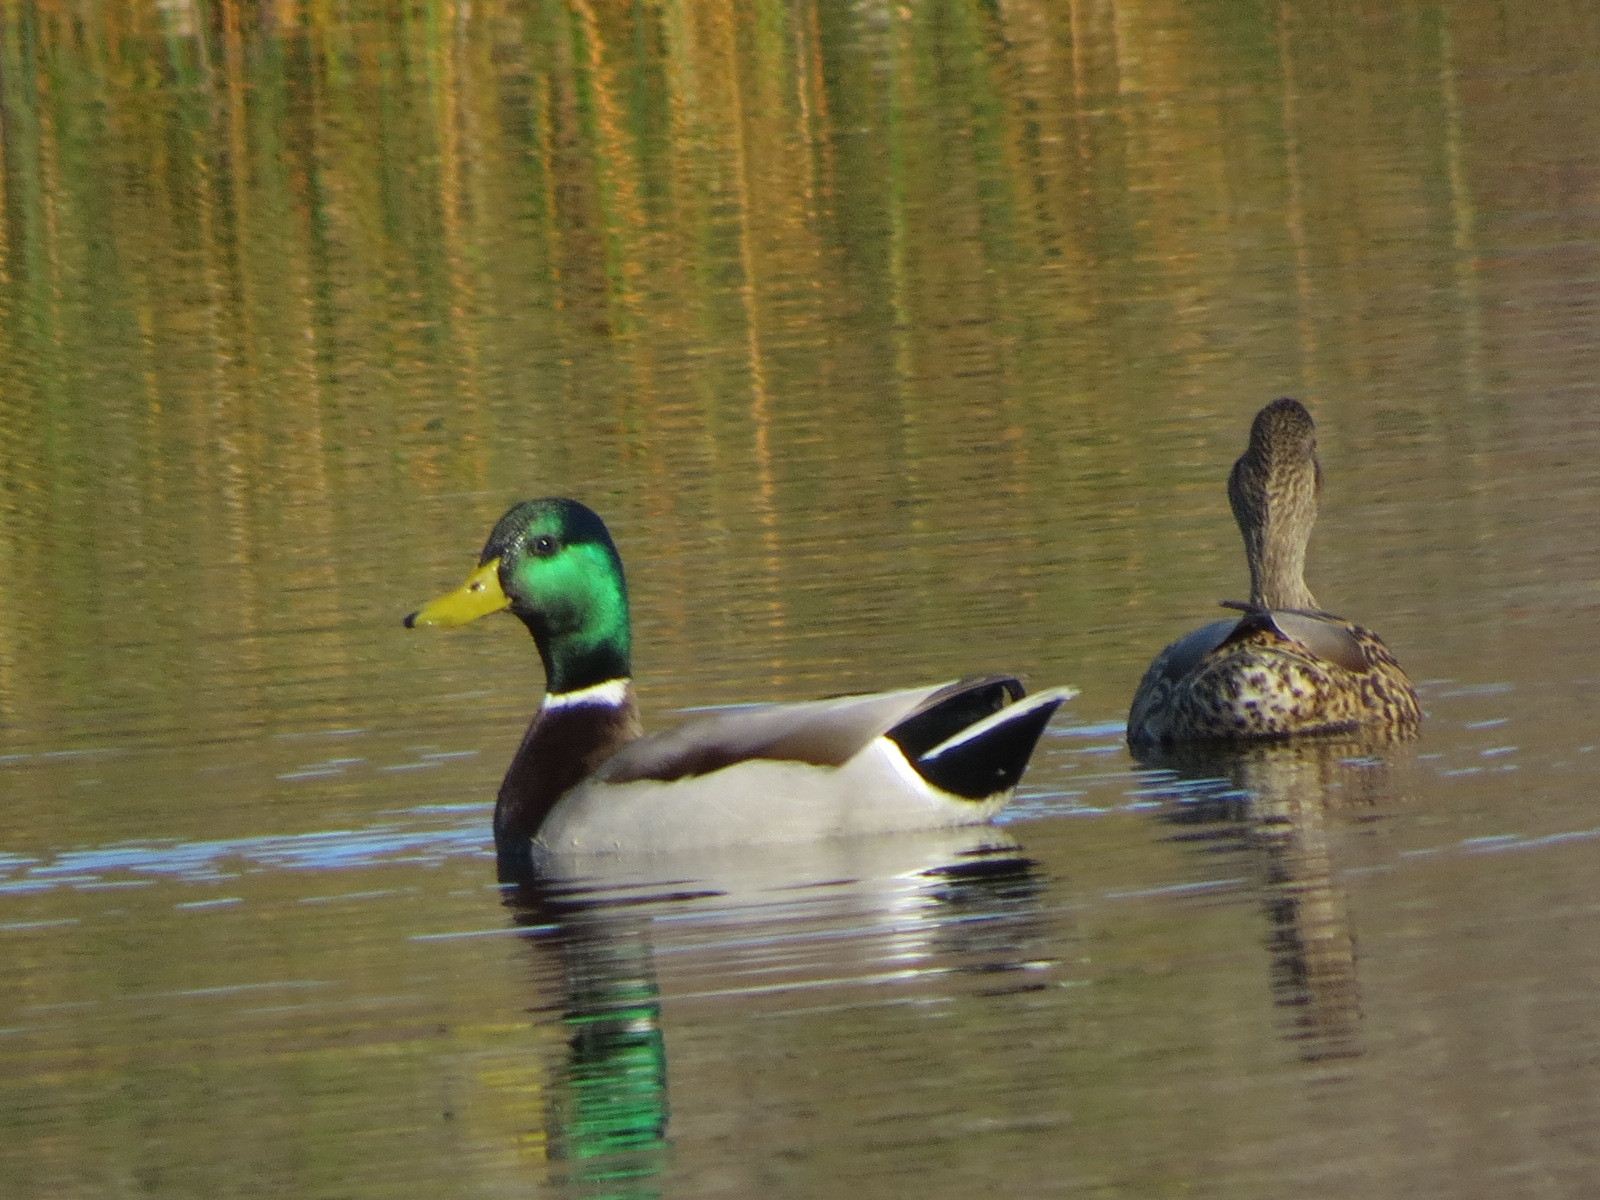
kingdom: Animalia
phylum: Chordata
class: Aves
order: Anseriformes
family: Anatidae
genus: Anas
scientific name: Anas platyrhynchos
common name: Mallard
